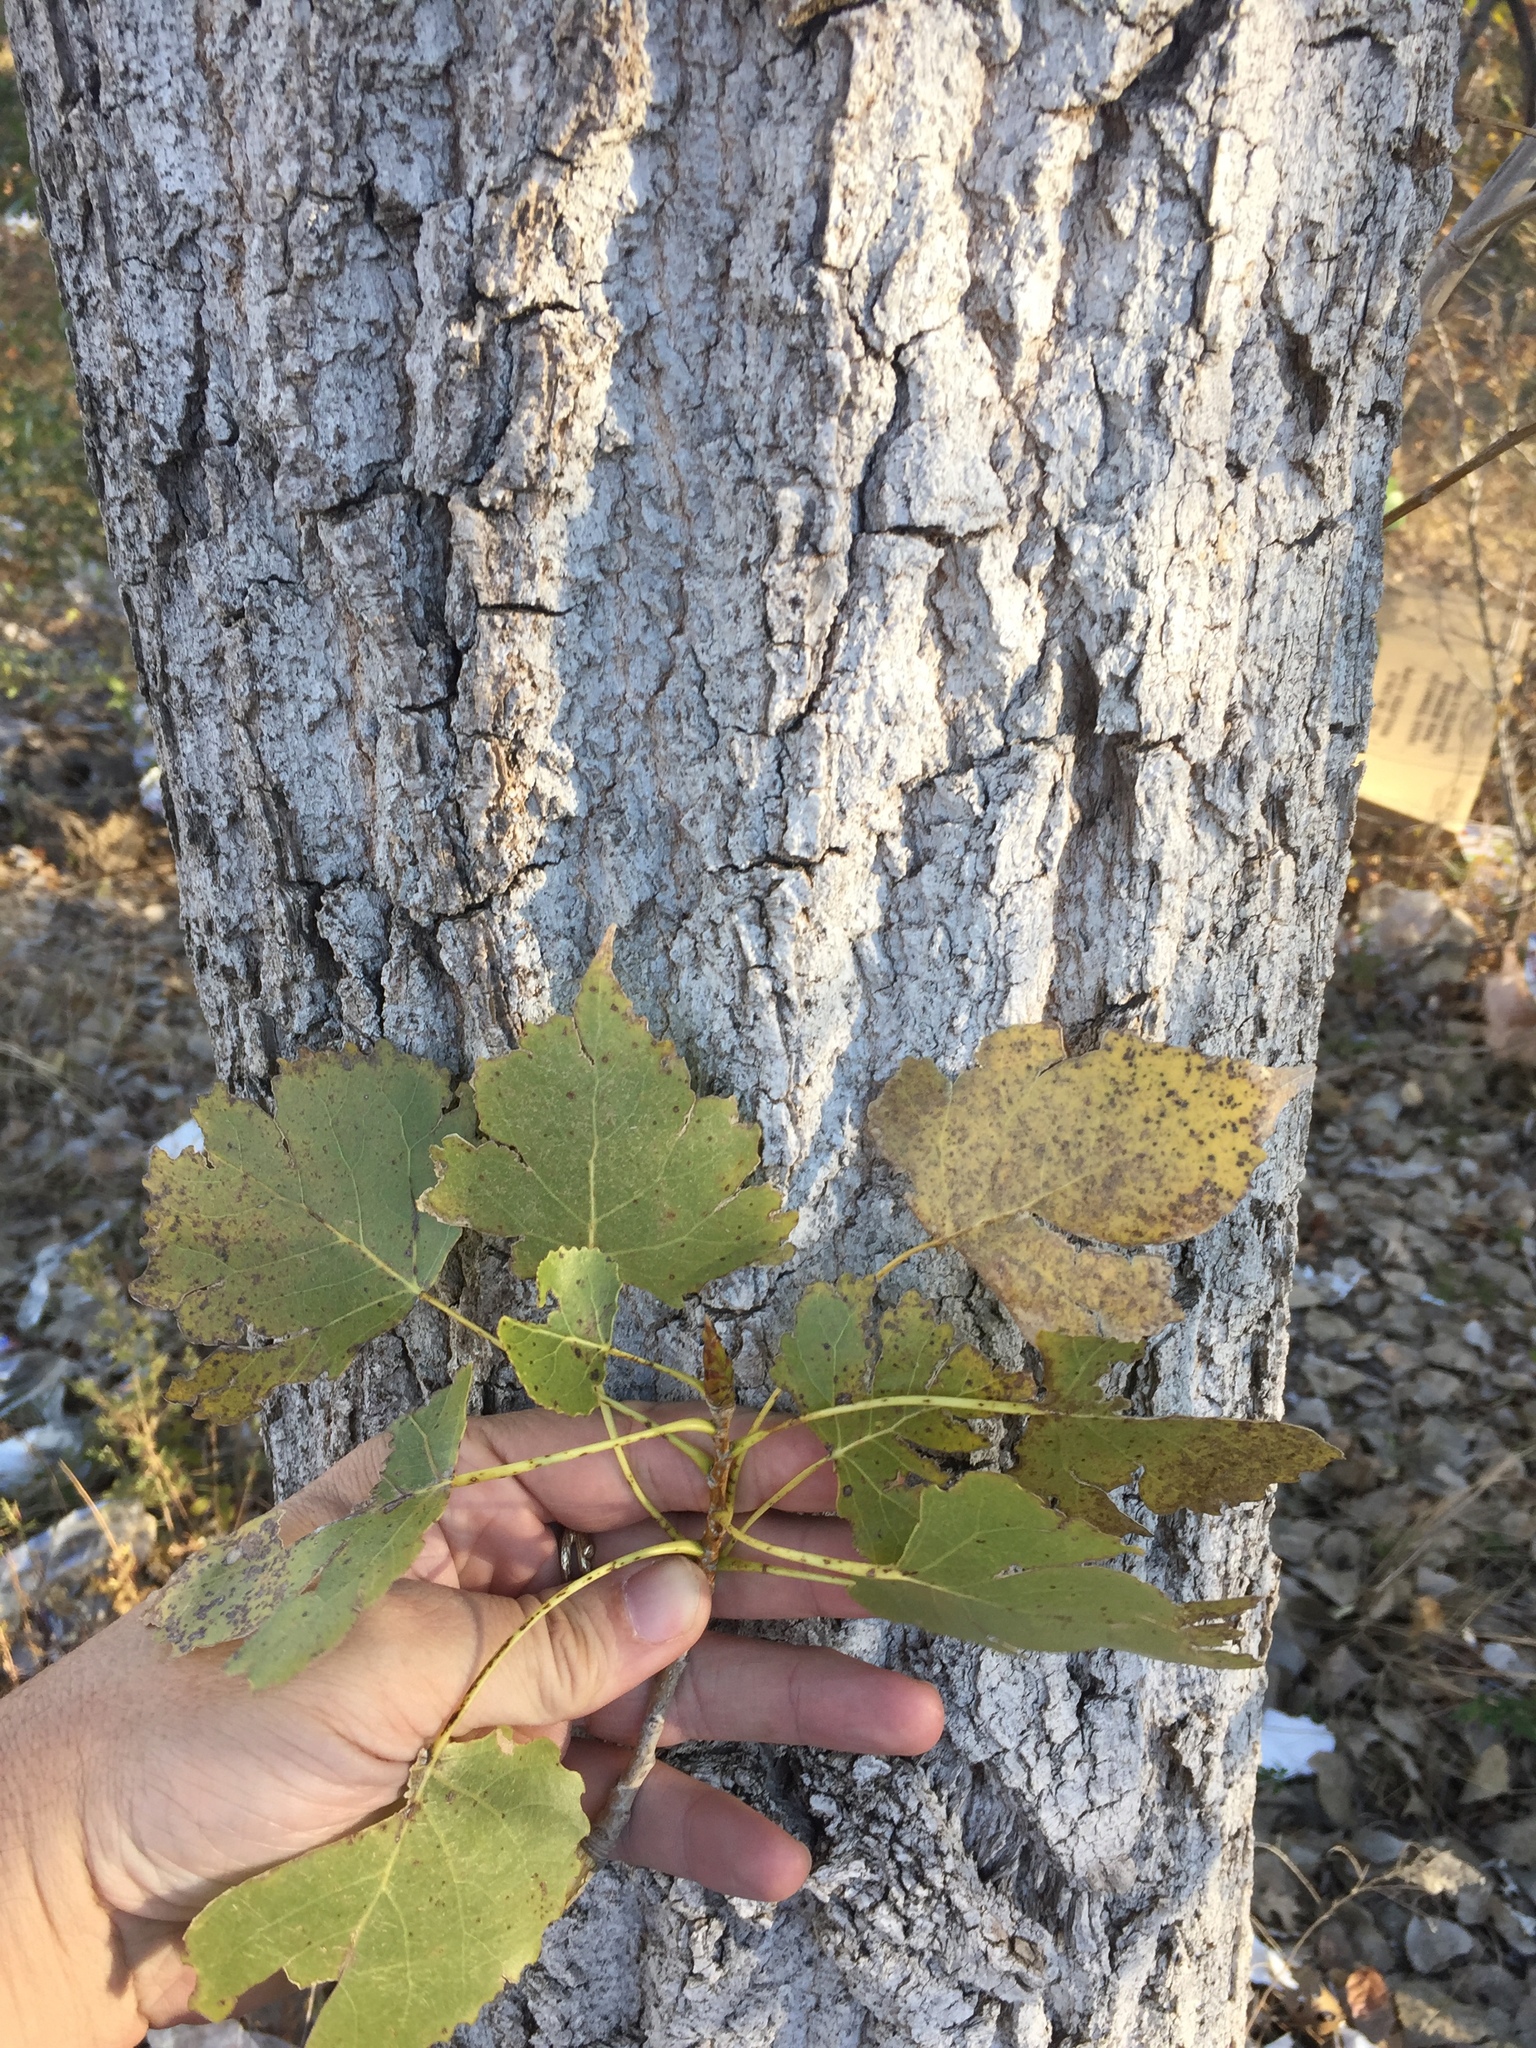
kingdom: Plantae
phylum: Tracheophyta
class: Magnoliopsida
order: Malpighiales
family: Salicaceae
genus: Populus
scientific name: Populus deltoides
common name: Eastern cottonwood
